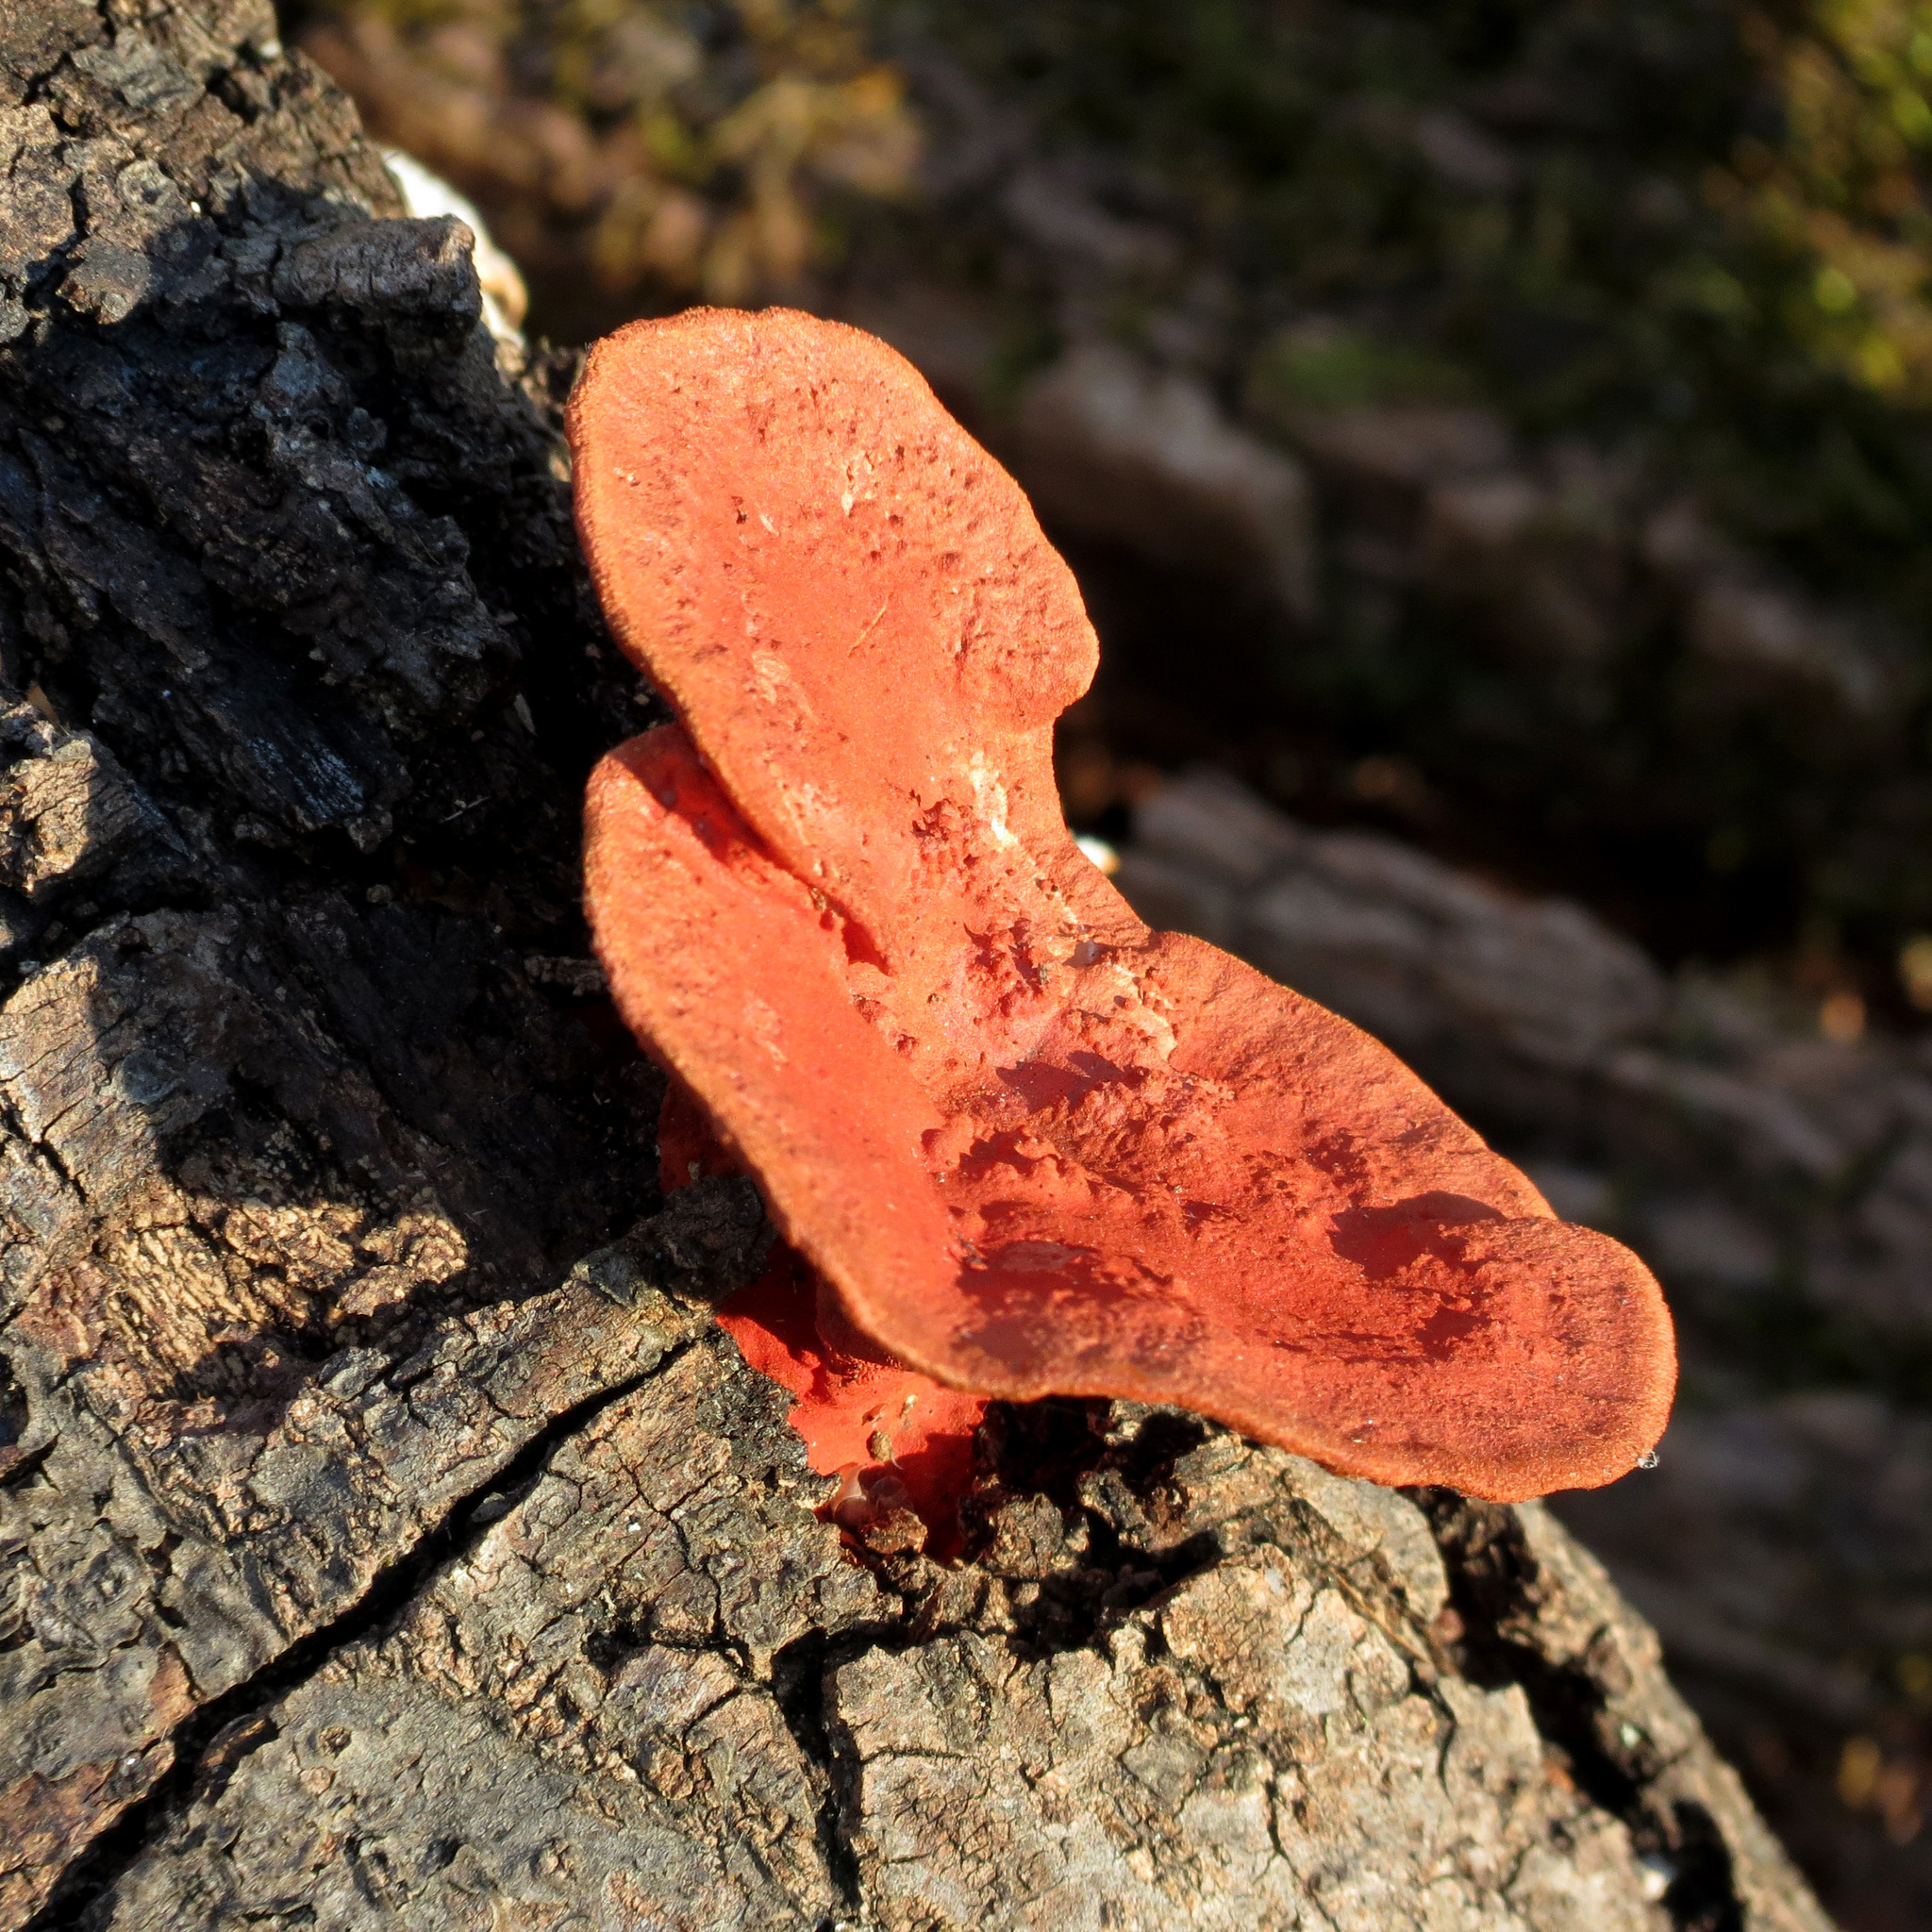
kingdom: Fungi
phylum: Basidiomycota
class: Agaricomycetes
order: Polyporales
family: Polyporaceae
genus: Trametes
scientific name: Trametes coccinea
